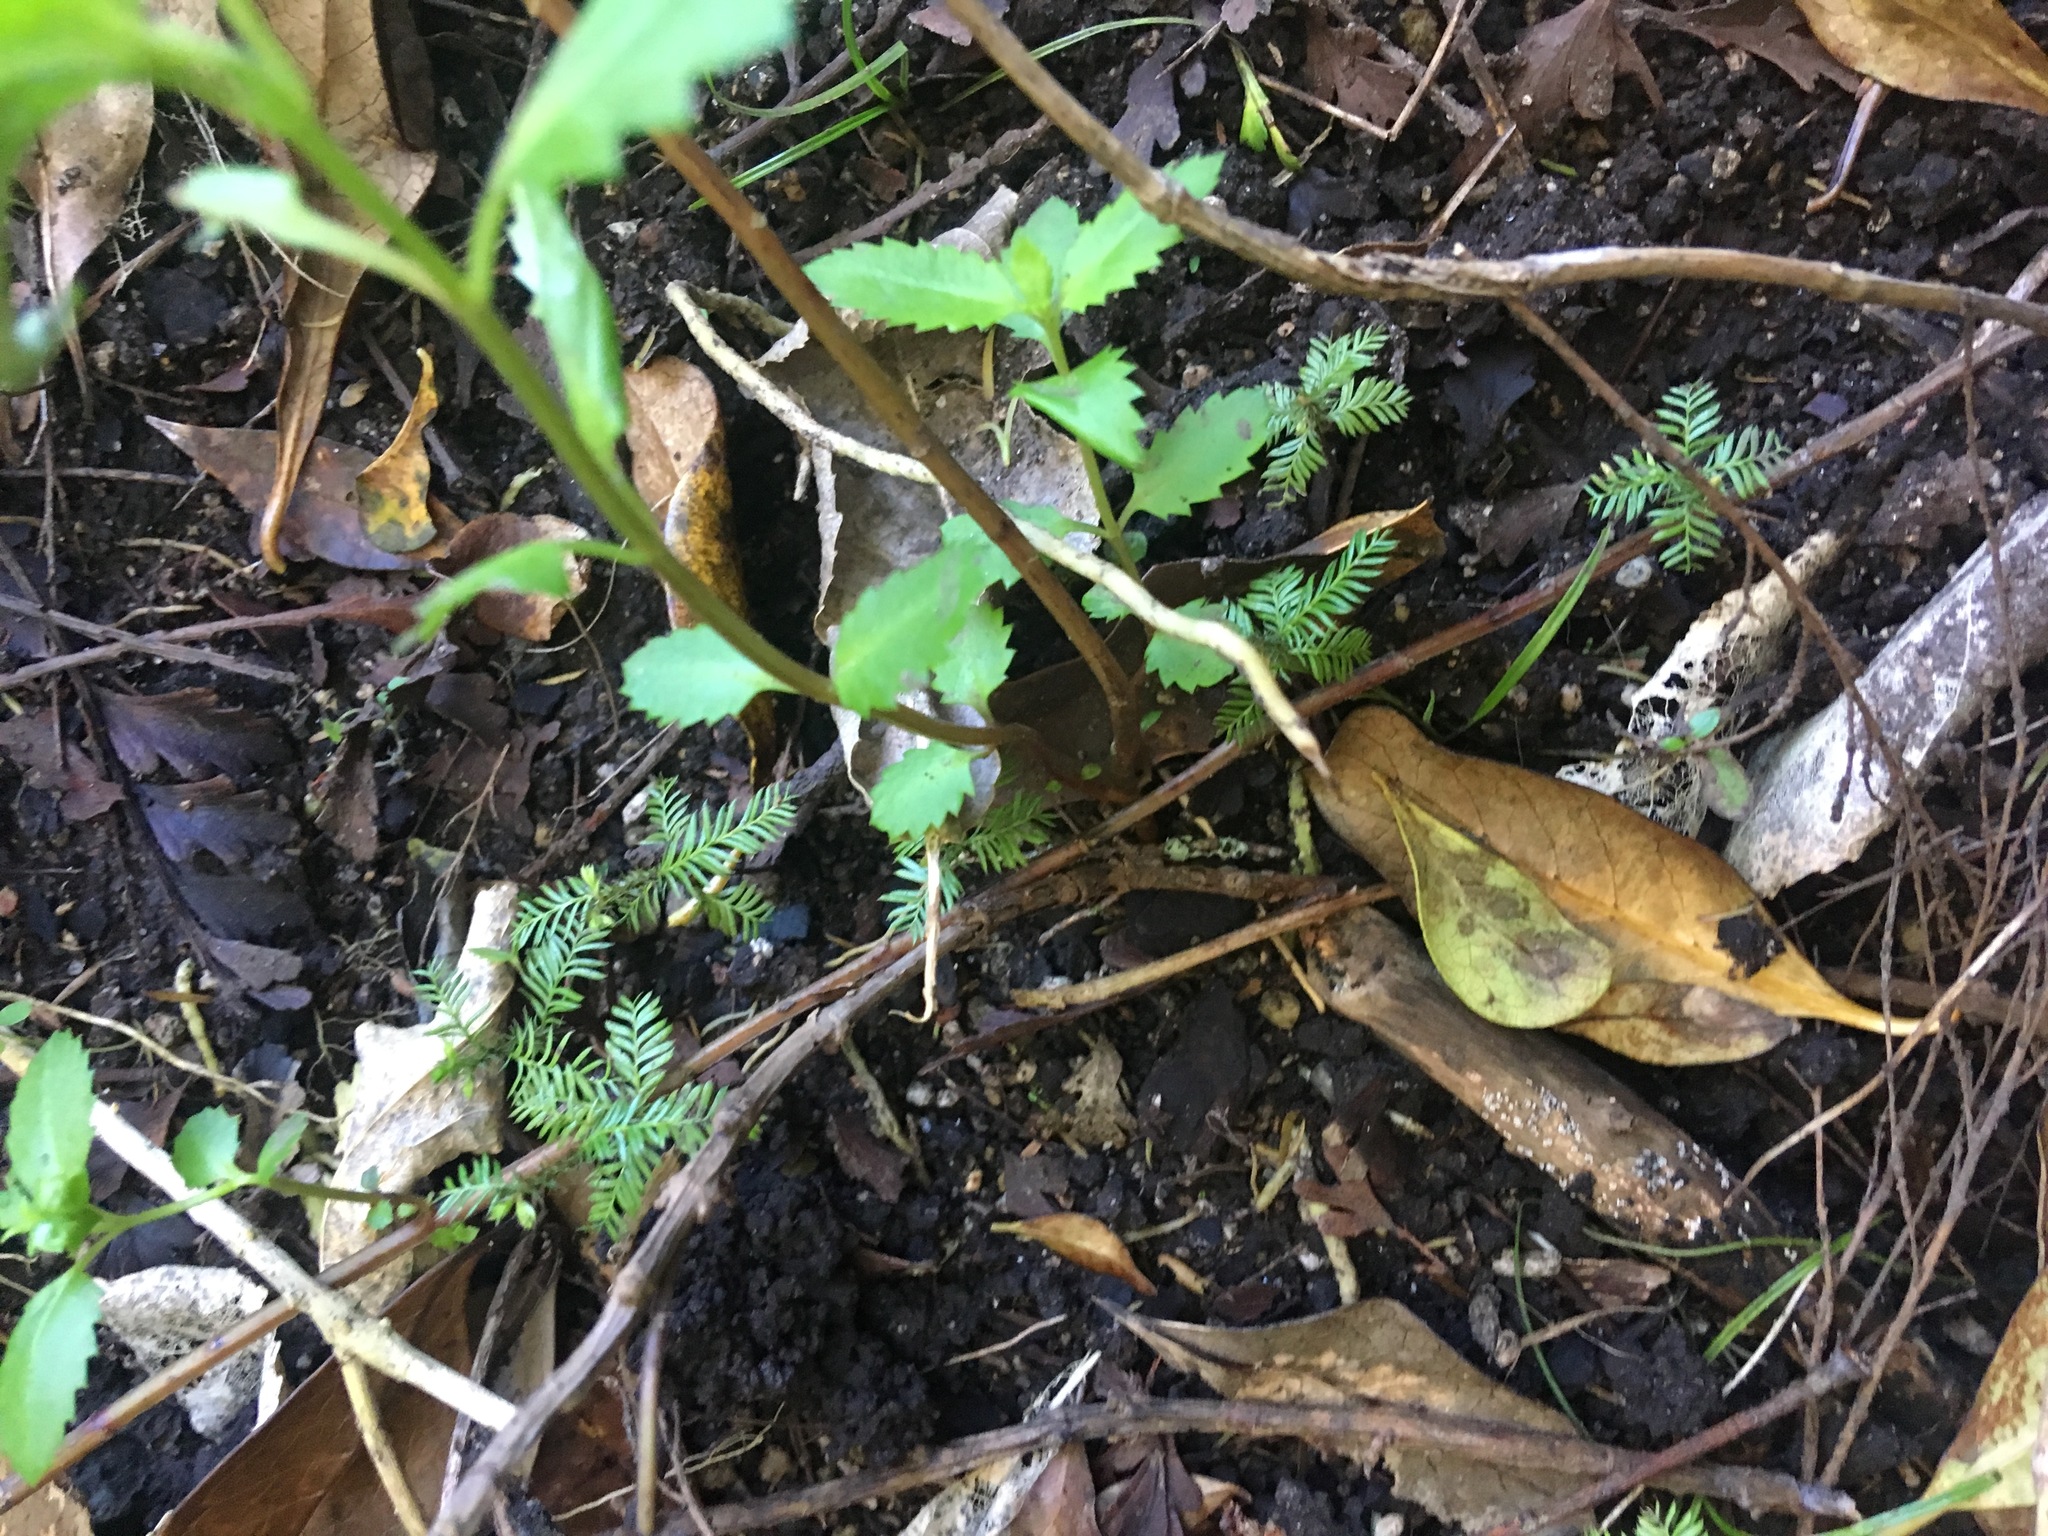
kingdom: Plantae
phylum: Tracheophyta
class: Pinopsida
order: Pinales
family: Podocarpaceae
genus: Dacrycarpus
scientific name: Dacrycarpus dacrydioides
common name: White pine
